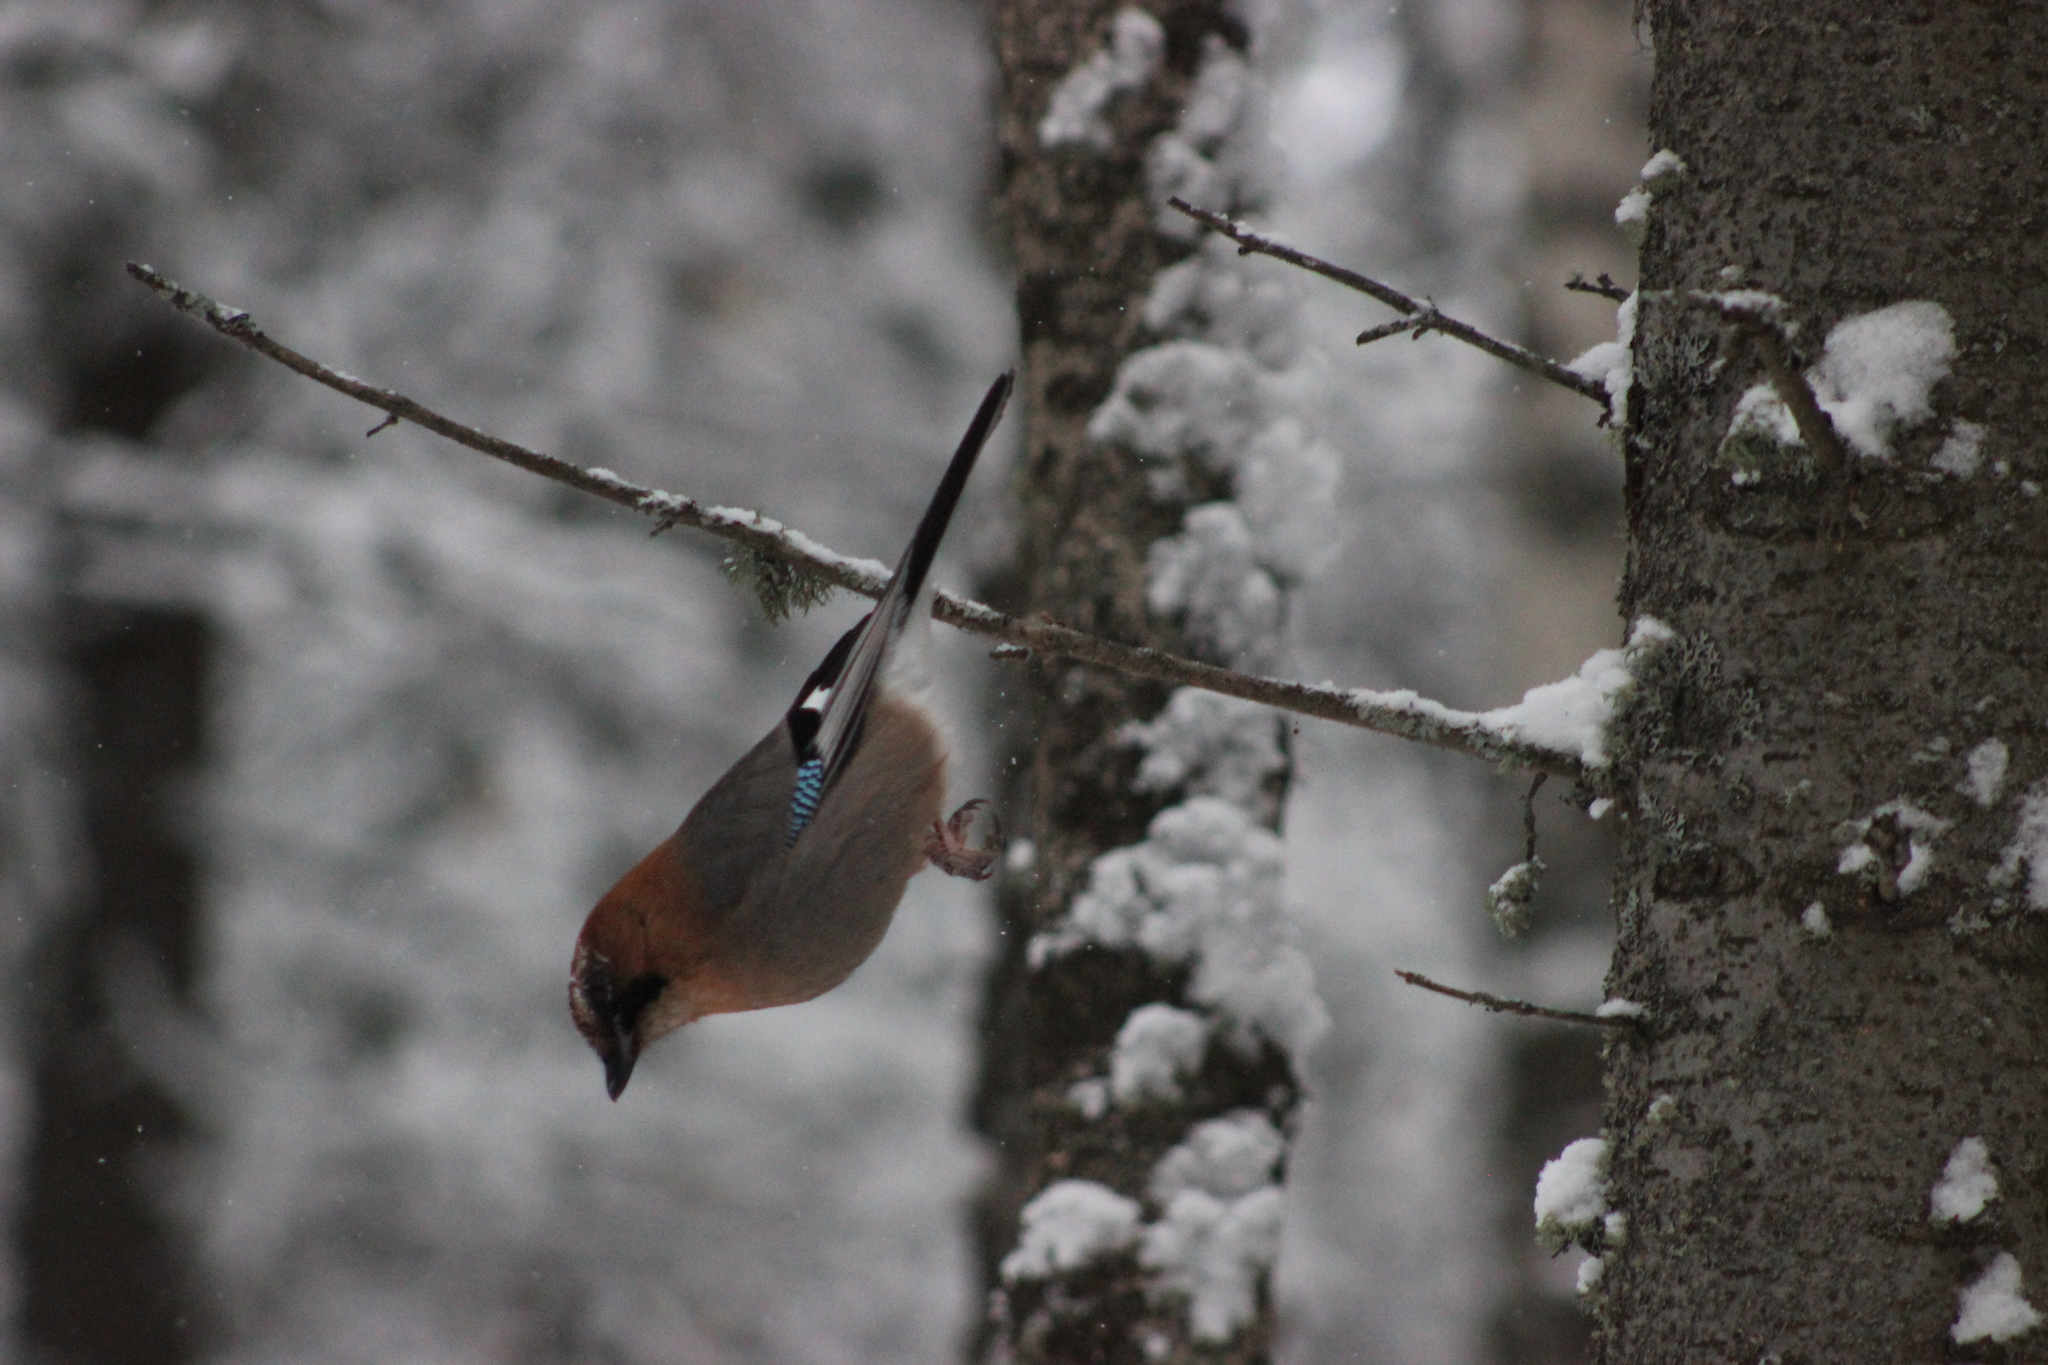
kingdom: Animalia
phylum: Chordata
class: Aves
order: Passeriformes
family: Corvidae
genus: Garrulus
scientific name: Garrulus glandarius
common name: Eurasian jay
